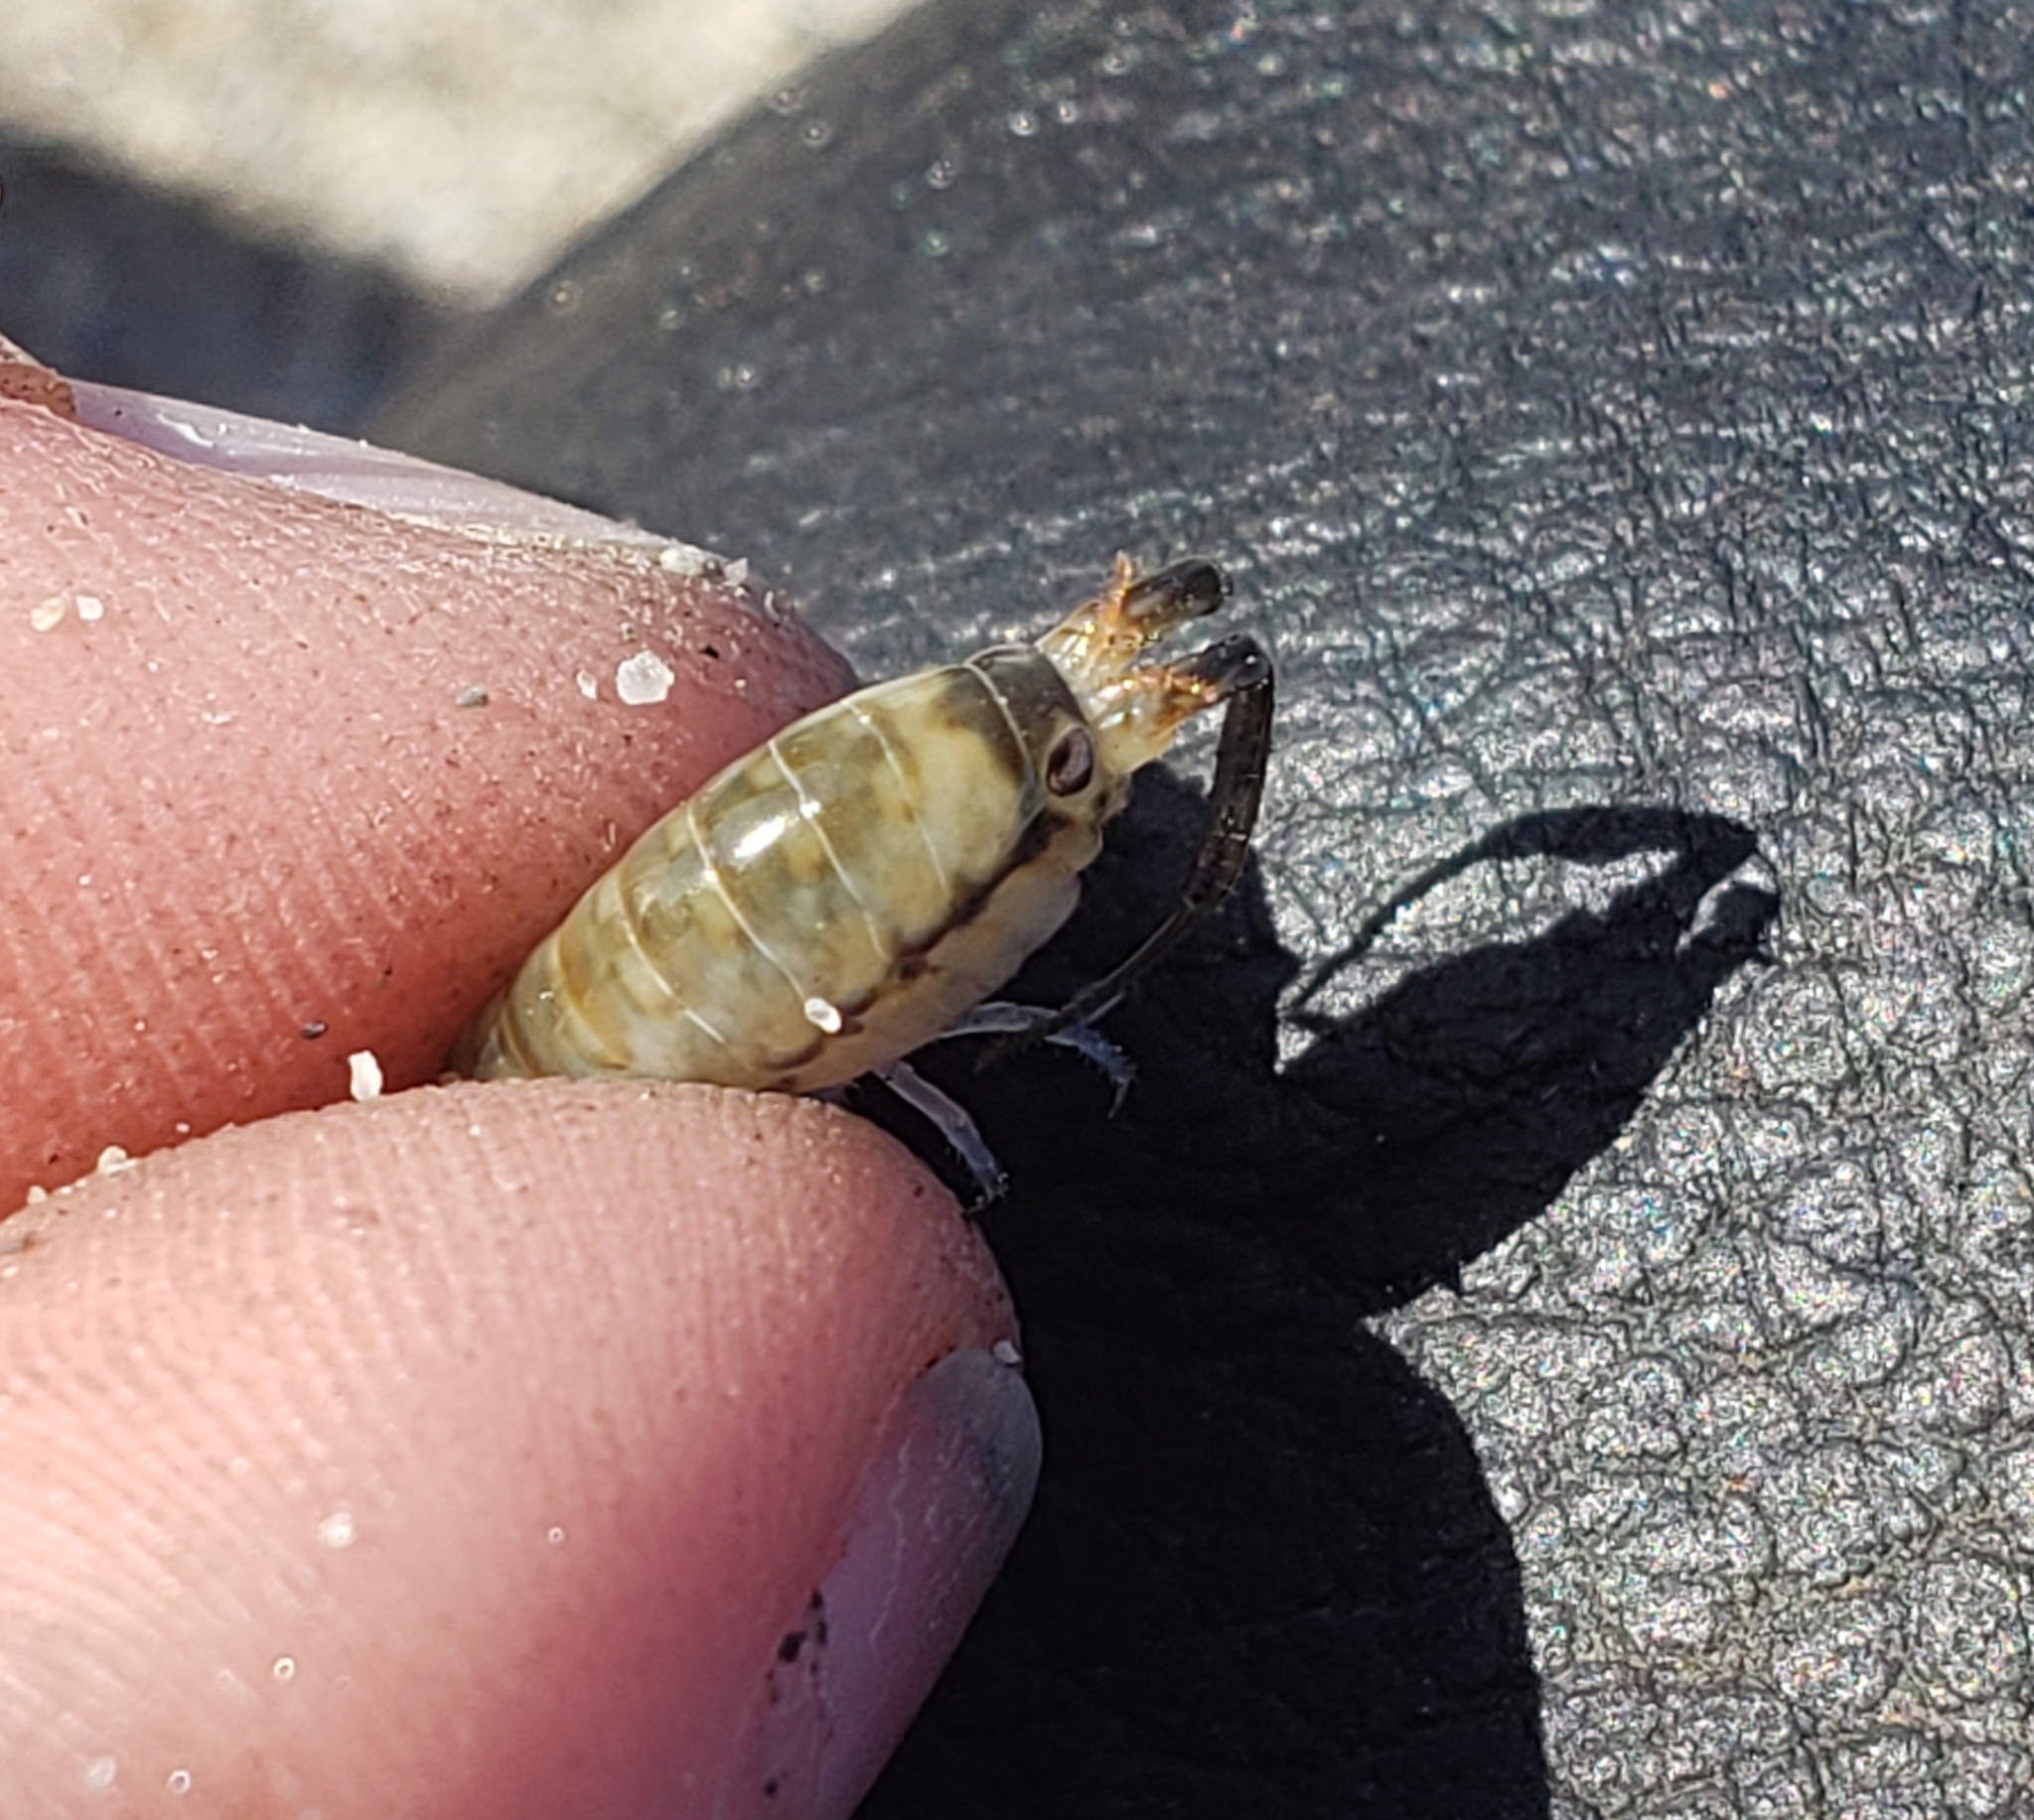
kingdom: Animalia
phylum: Arthropoda
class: Malacostraca
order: Amphipoda
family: Talitridae
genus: Megalorchestia
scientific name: Megalorchestia pugettensis
